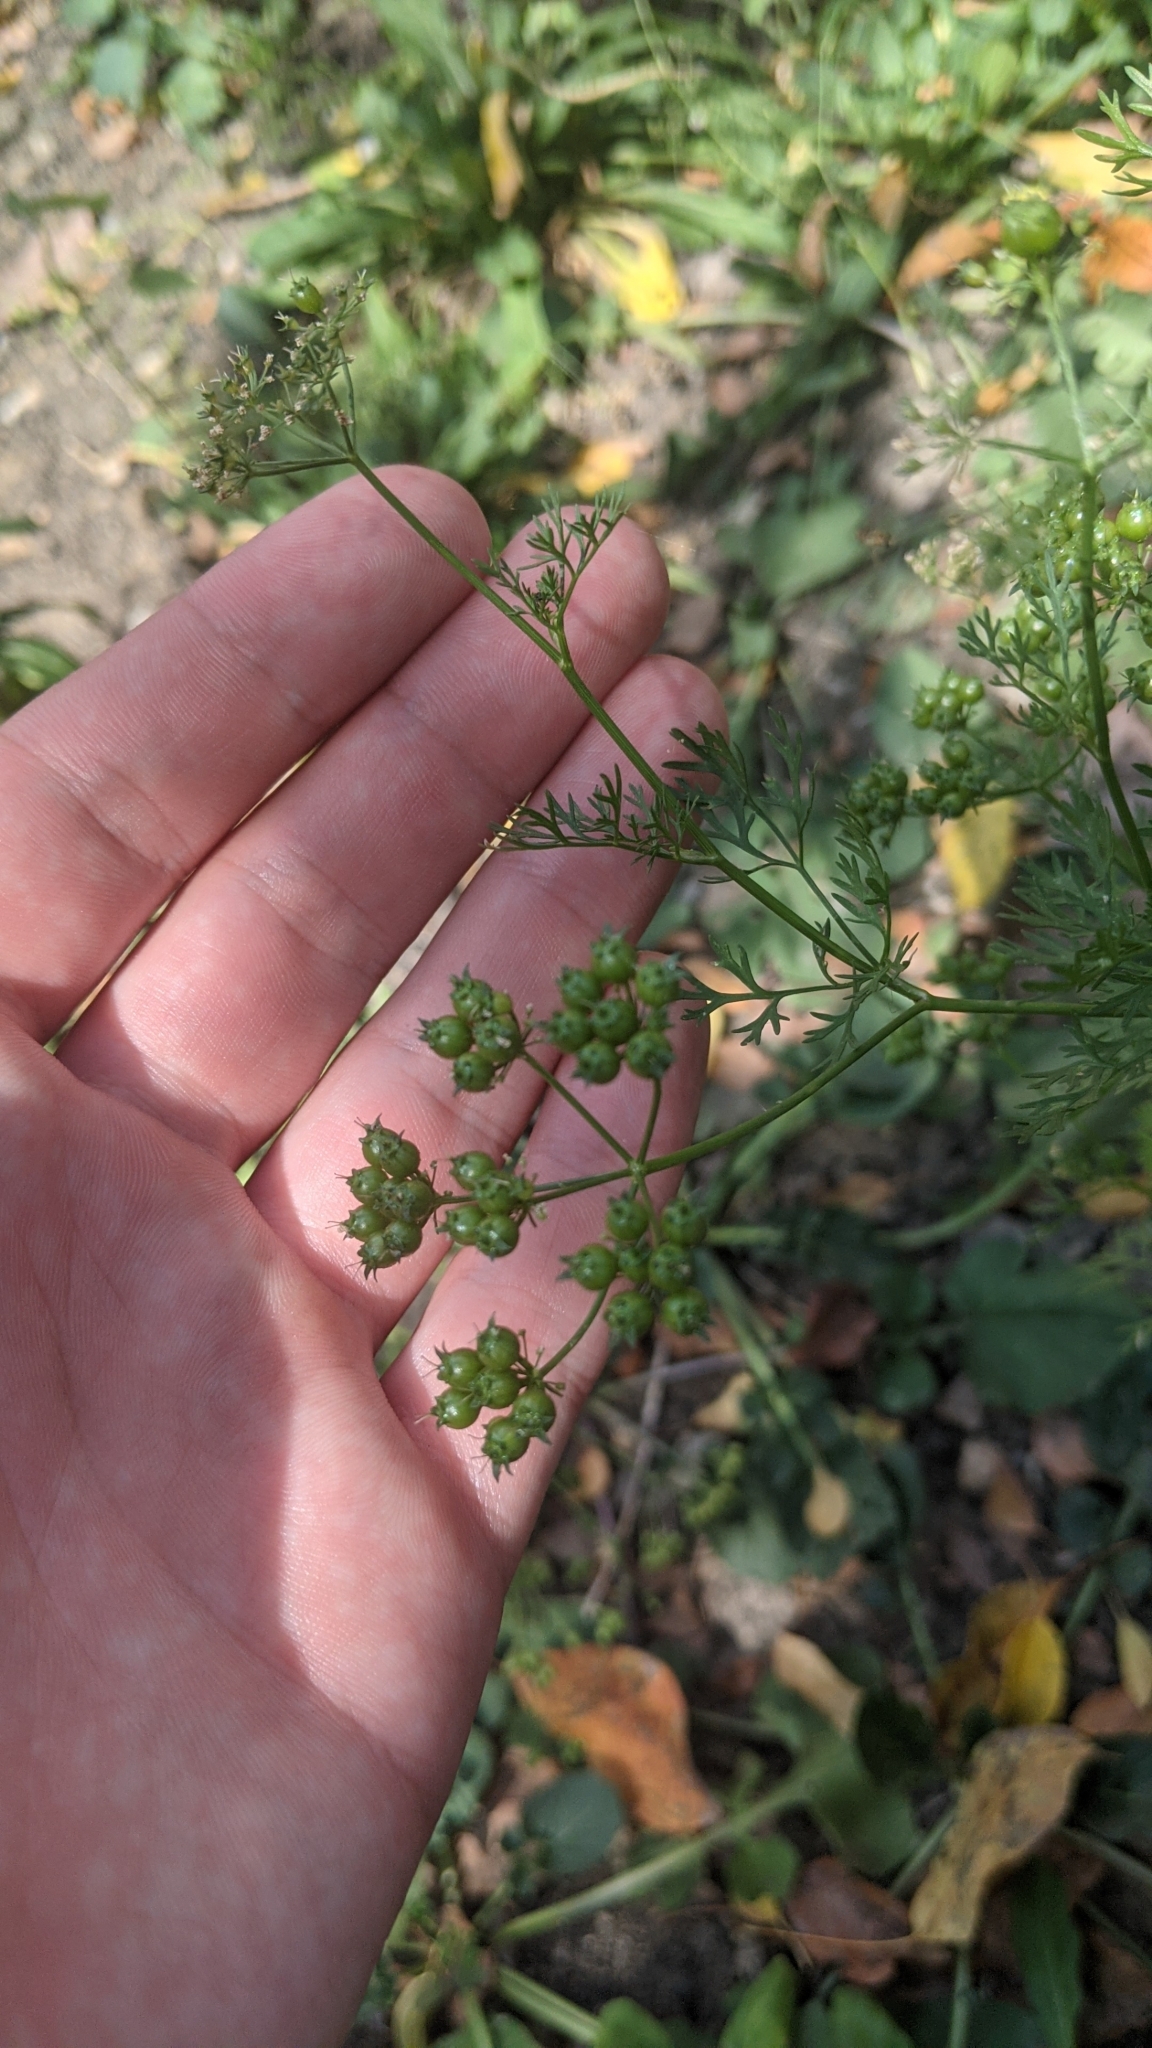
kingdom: Plantae
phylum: Tracheophyta
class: Magnoliopsida
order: Apiales
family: Apiaceae
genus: Coriandrum
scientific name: Coriandrum sativum
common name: Coriander
